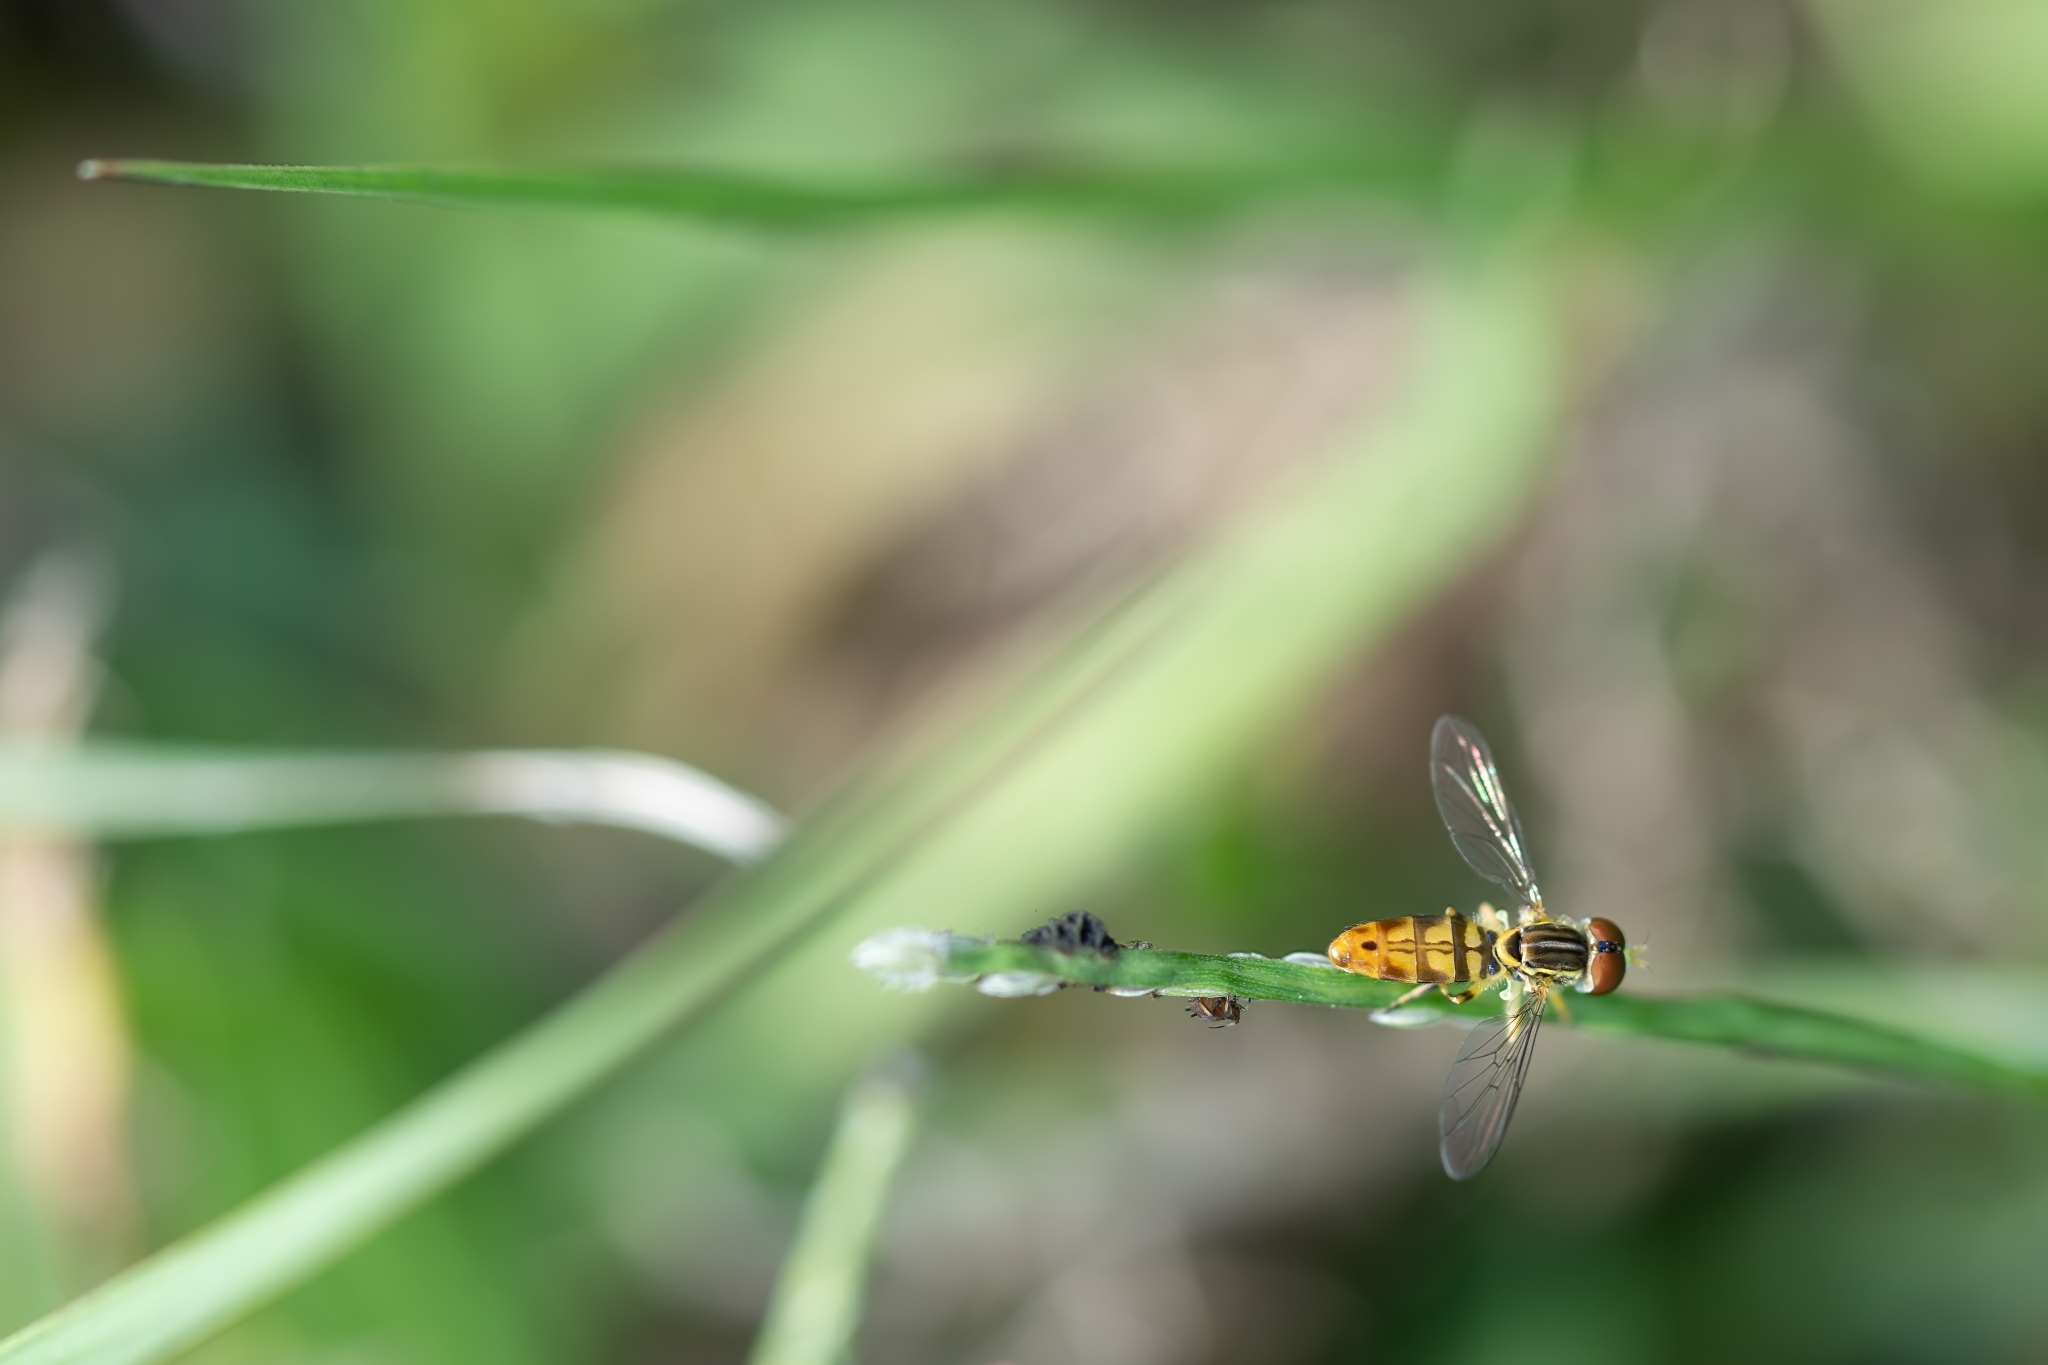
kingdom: Animalia
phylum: Arthropoda
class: Insecta
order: Diptera
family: Syrphidae
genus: Toxomerus
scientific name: Toxomerus floralis
